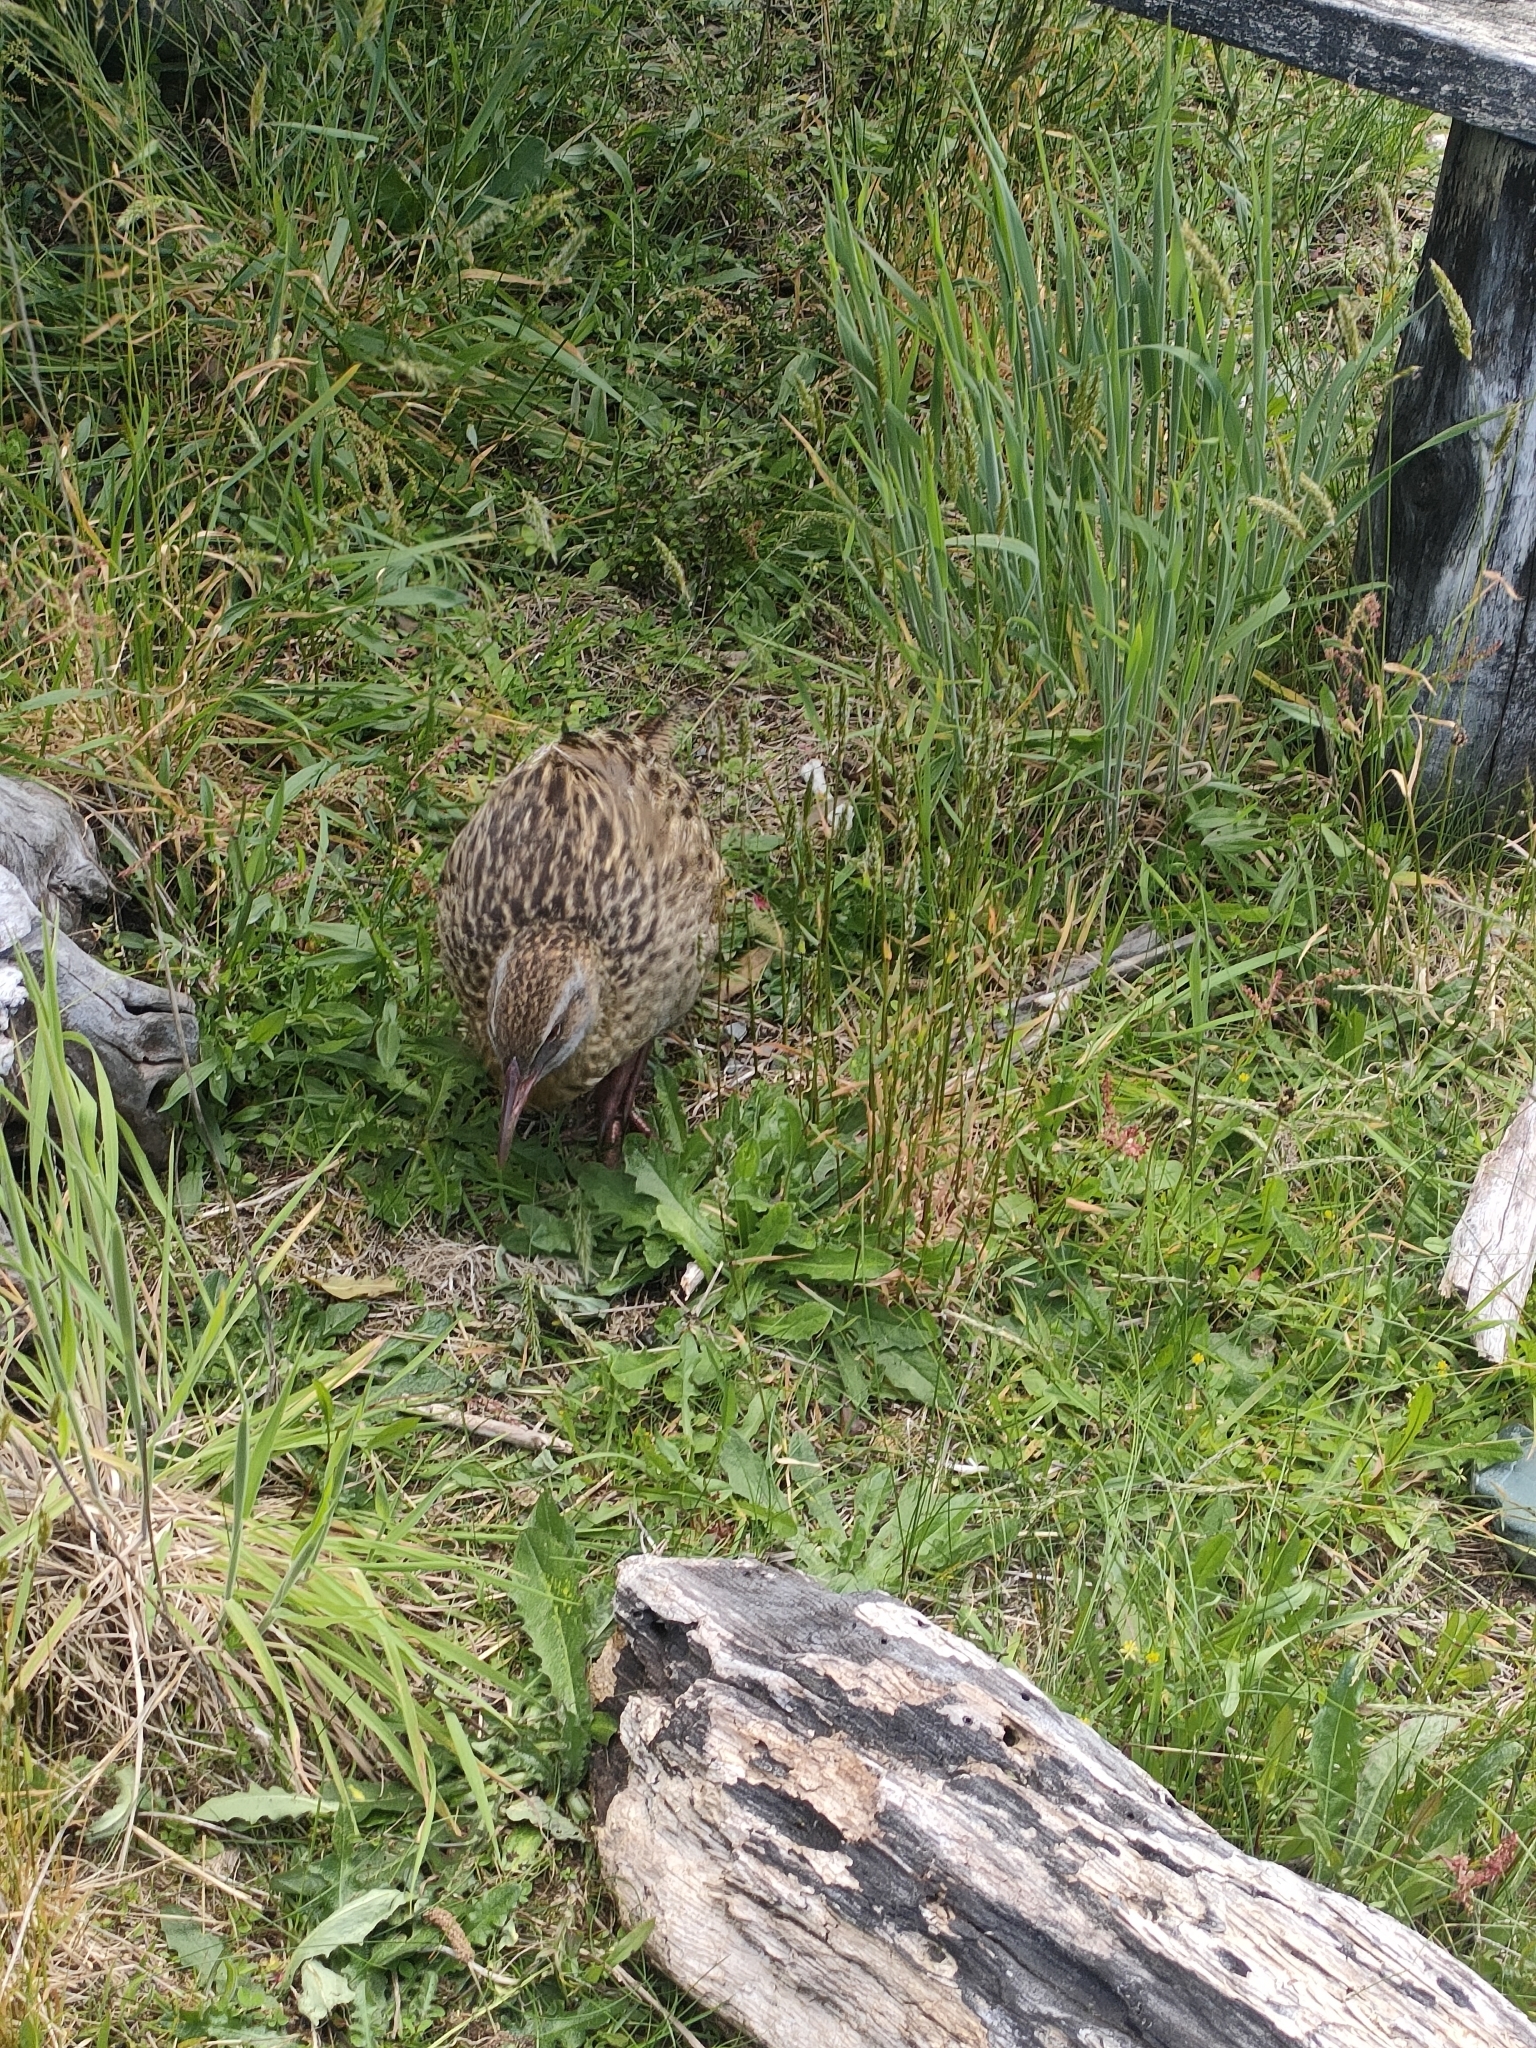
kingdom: Animalia
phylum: Chordata
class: Aves
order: Gruiformes
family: Rallidae
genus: Gallirallus
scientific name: Gallirallus australis
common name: Weka
